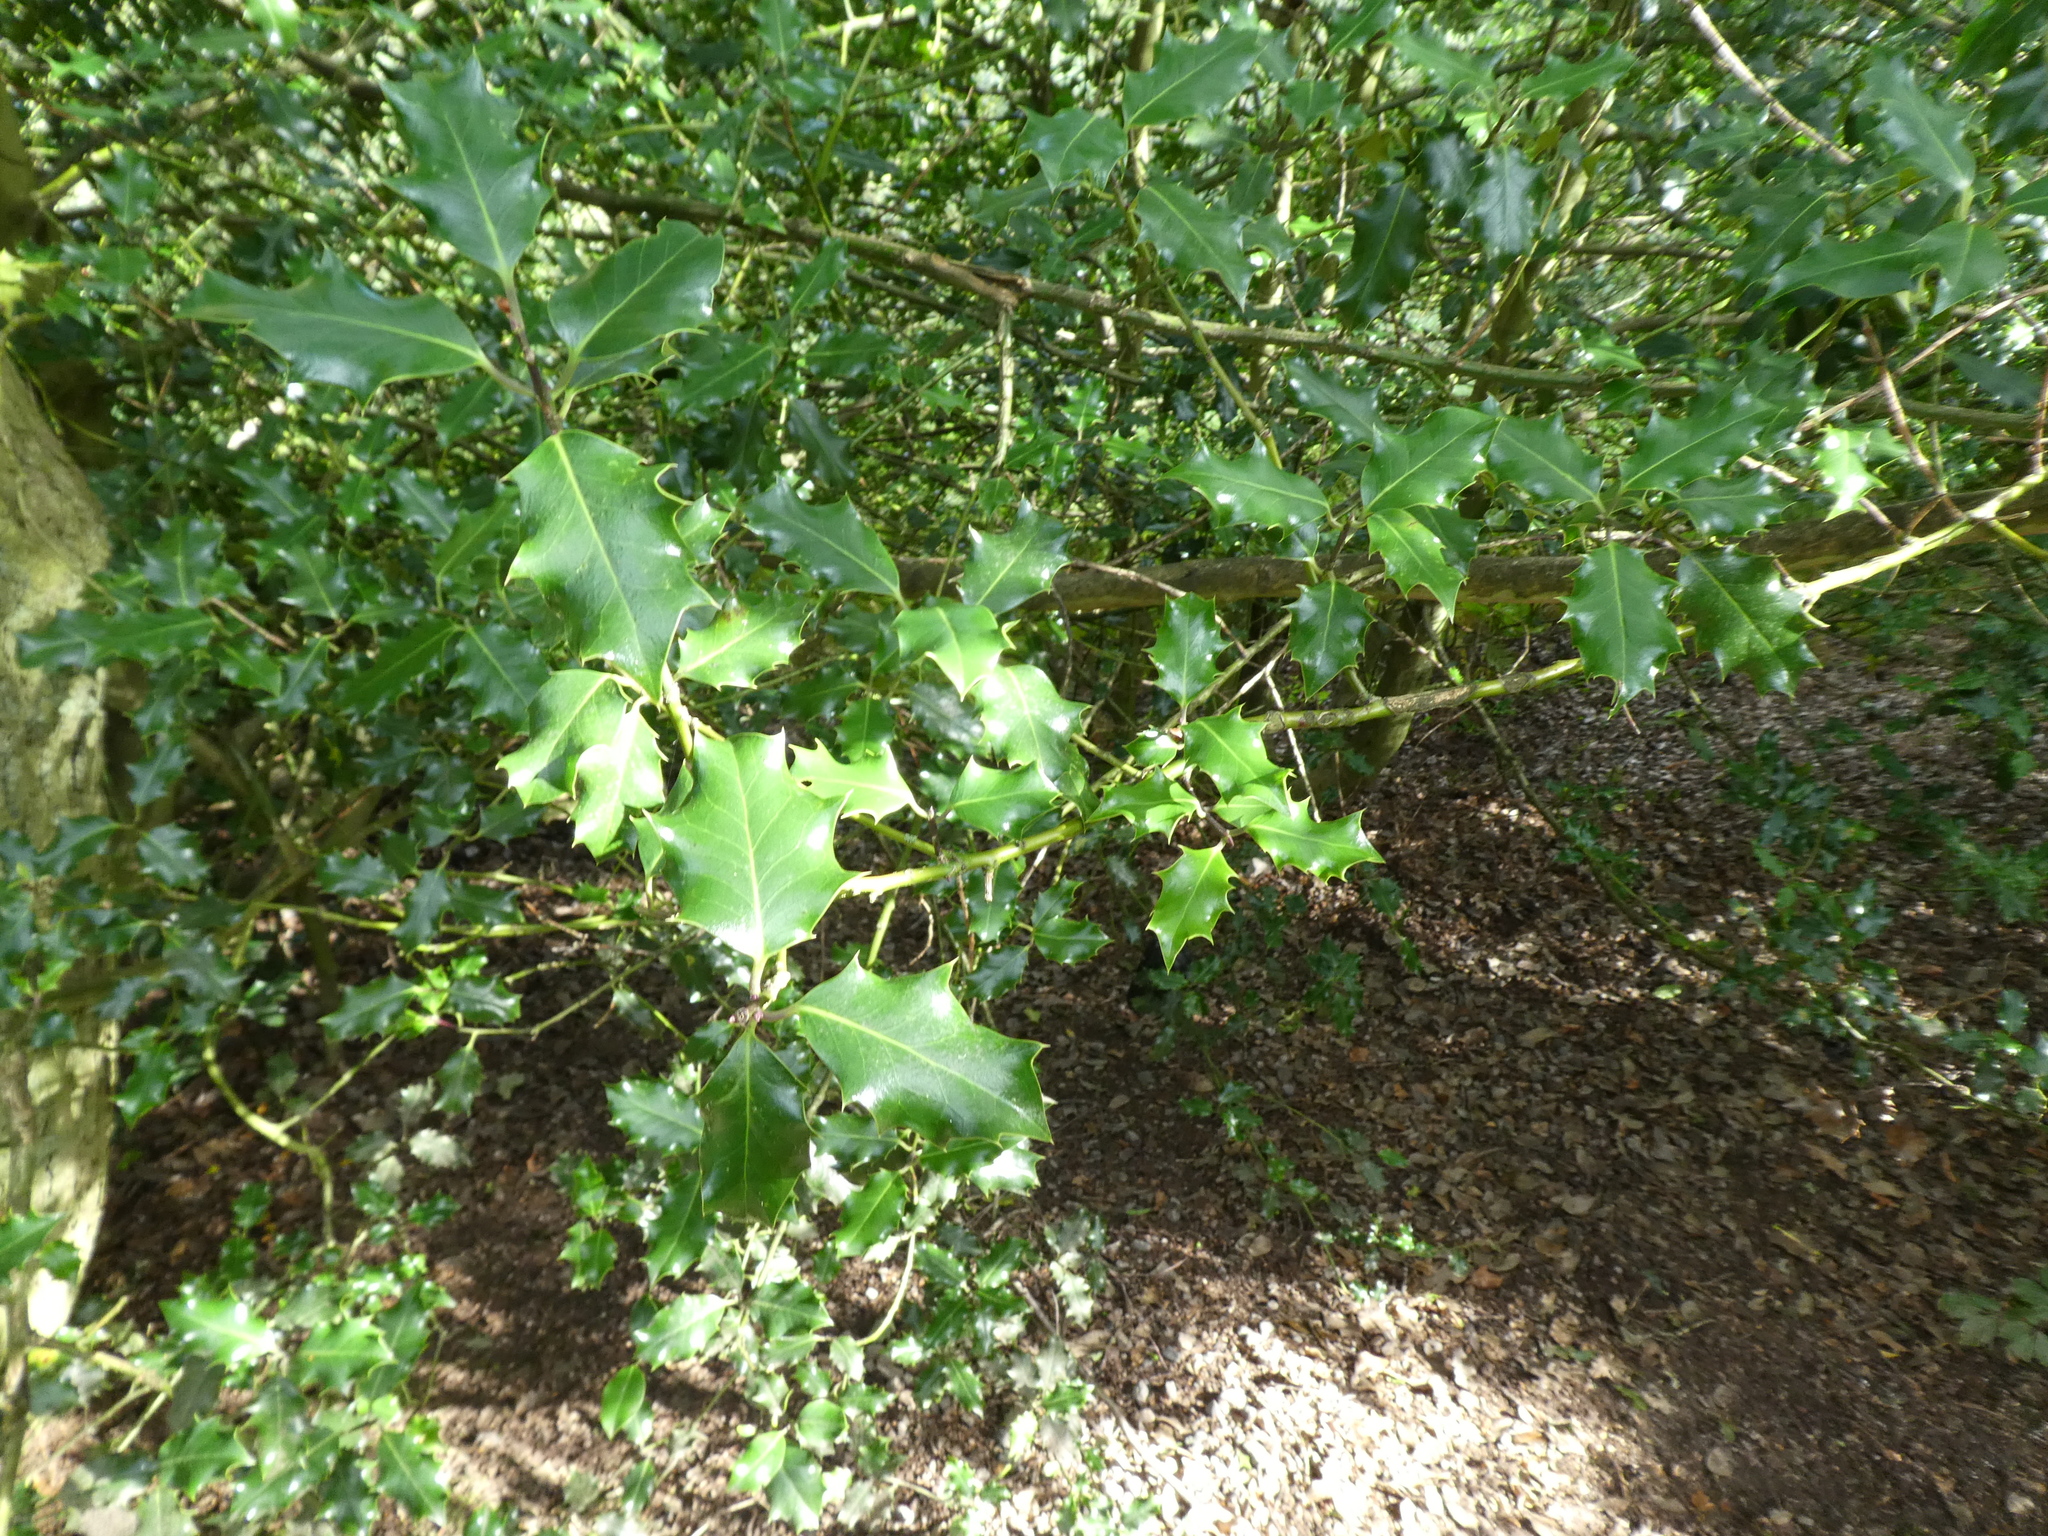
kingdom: Plantae
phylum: Tracheophyta
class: Magnoliopsida
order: Aquifoliales
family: Aquifoliaceae
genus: Ilex
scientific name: Ilex aquifolium
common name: English holly
